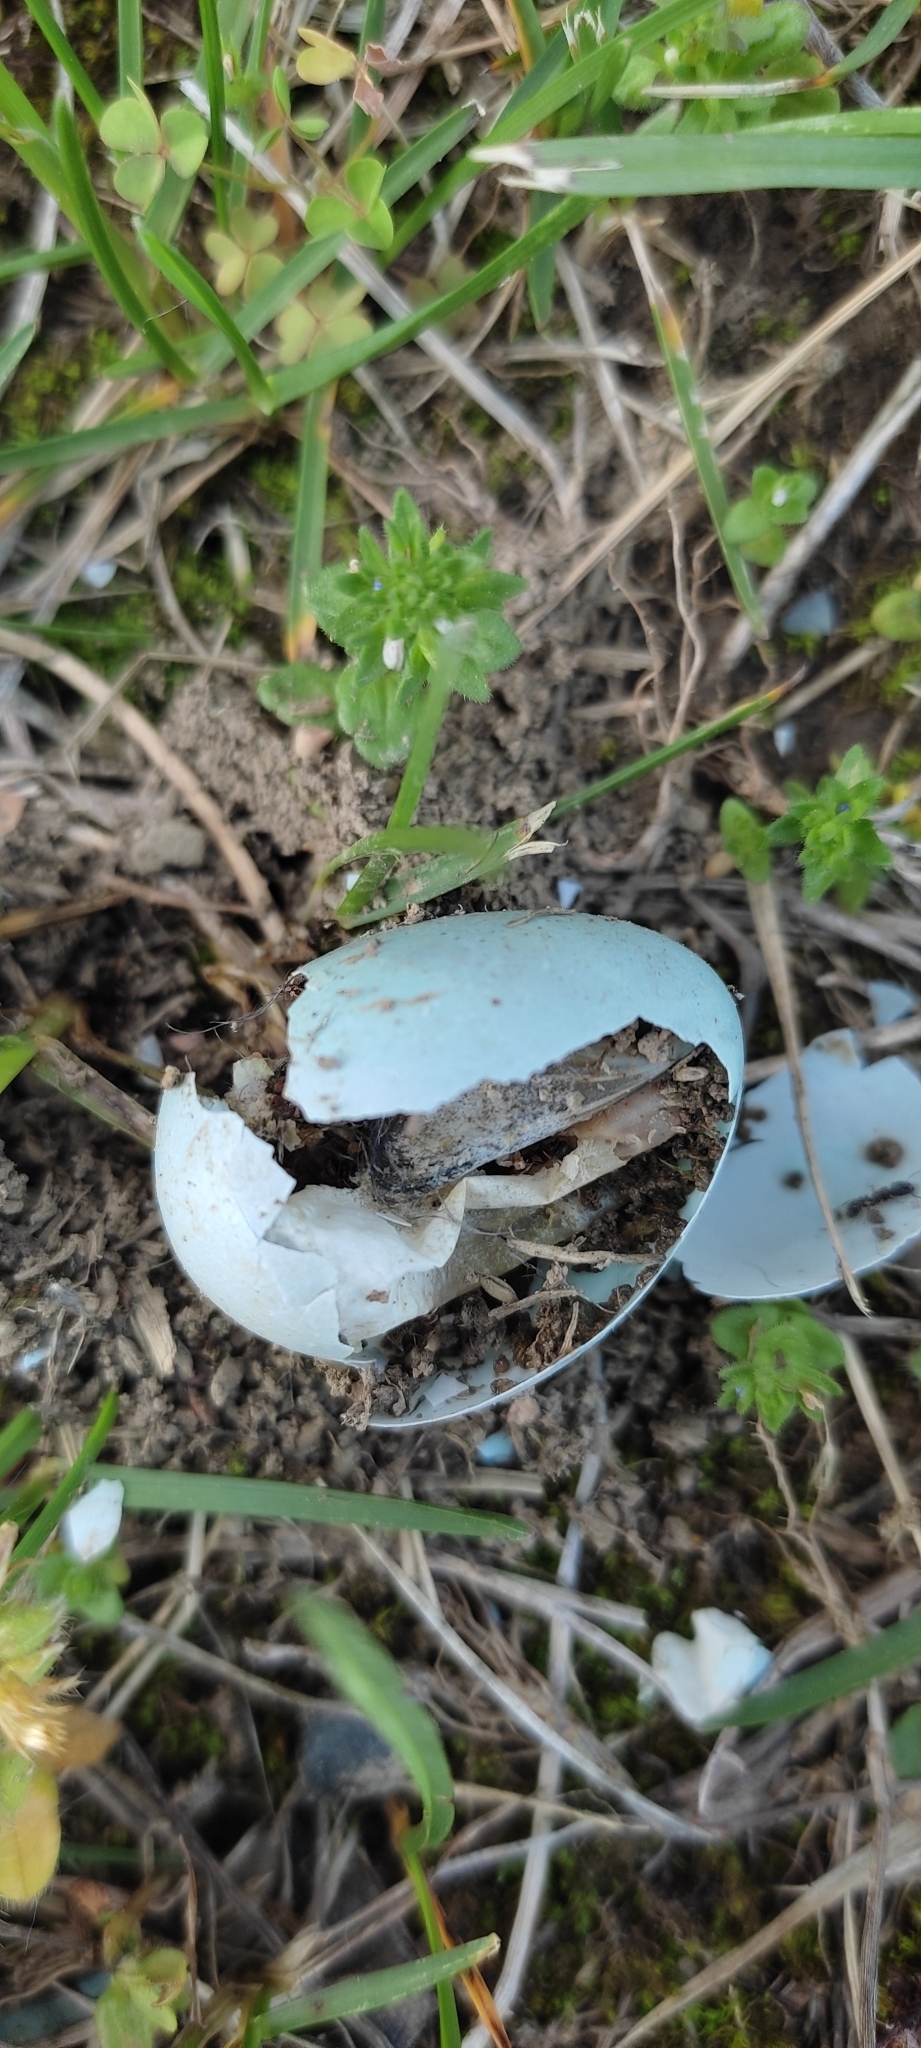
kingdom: Animalia
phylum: Chordata
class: Aves
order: Passeriformes
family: Turdidae
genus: Turdus
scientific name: Turdus migratorius
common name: American robin
